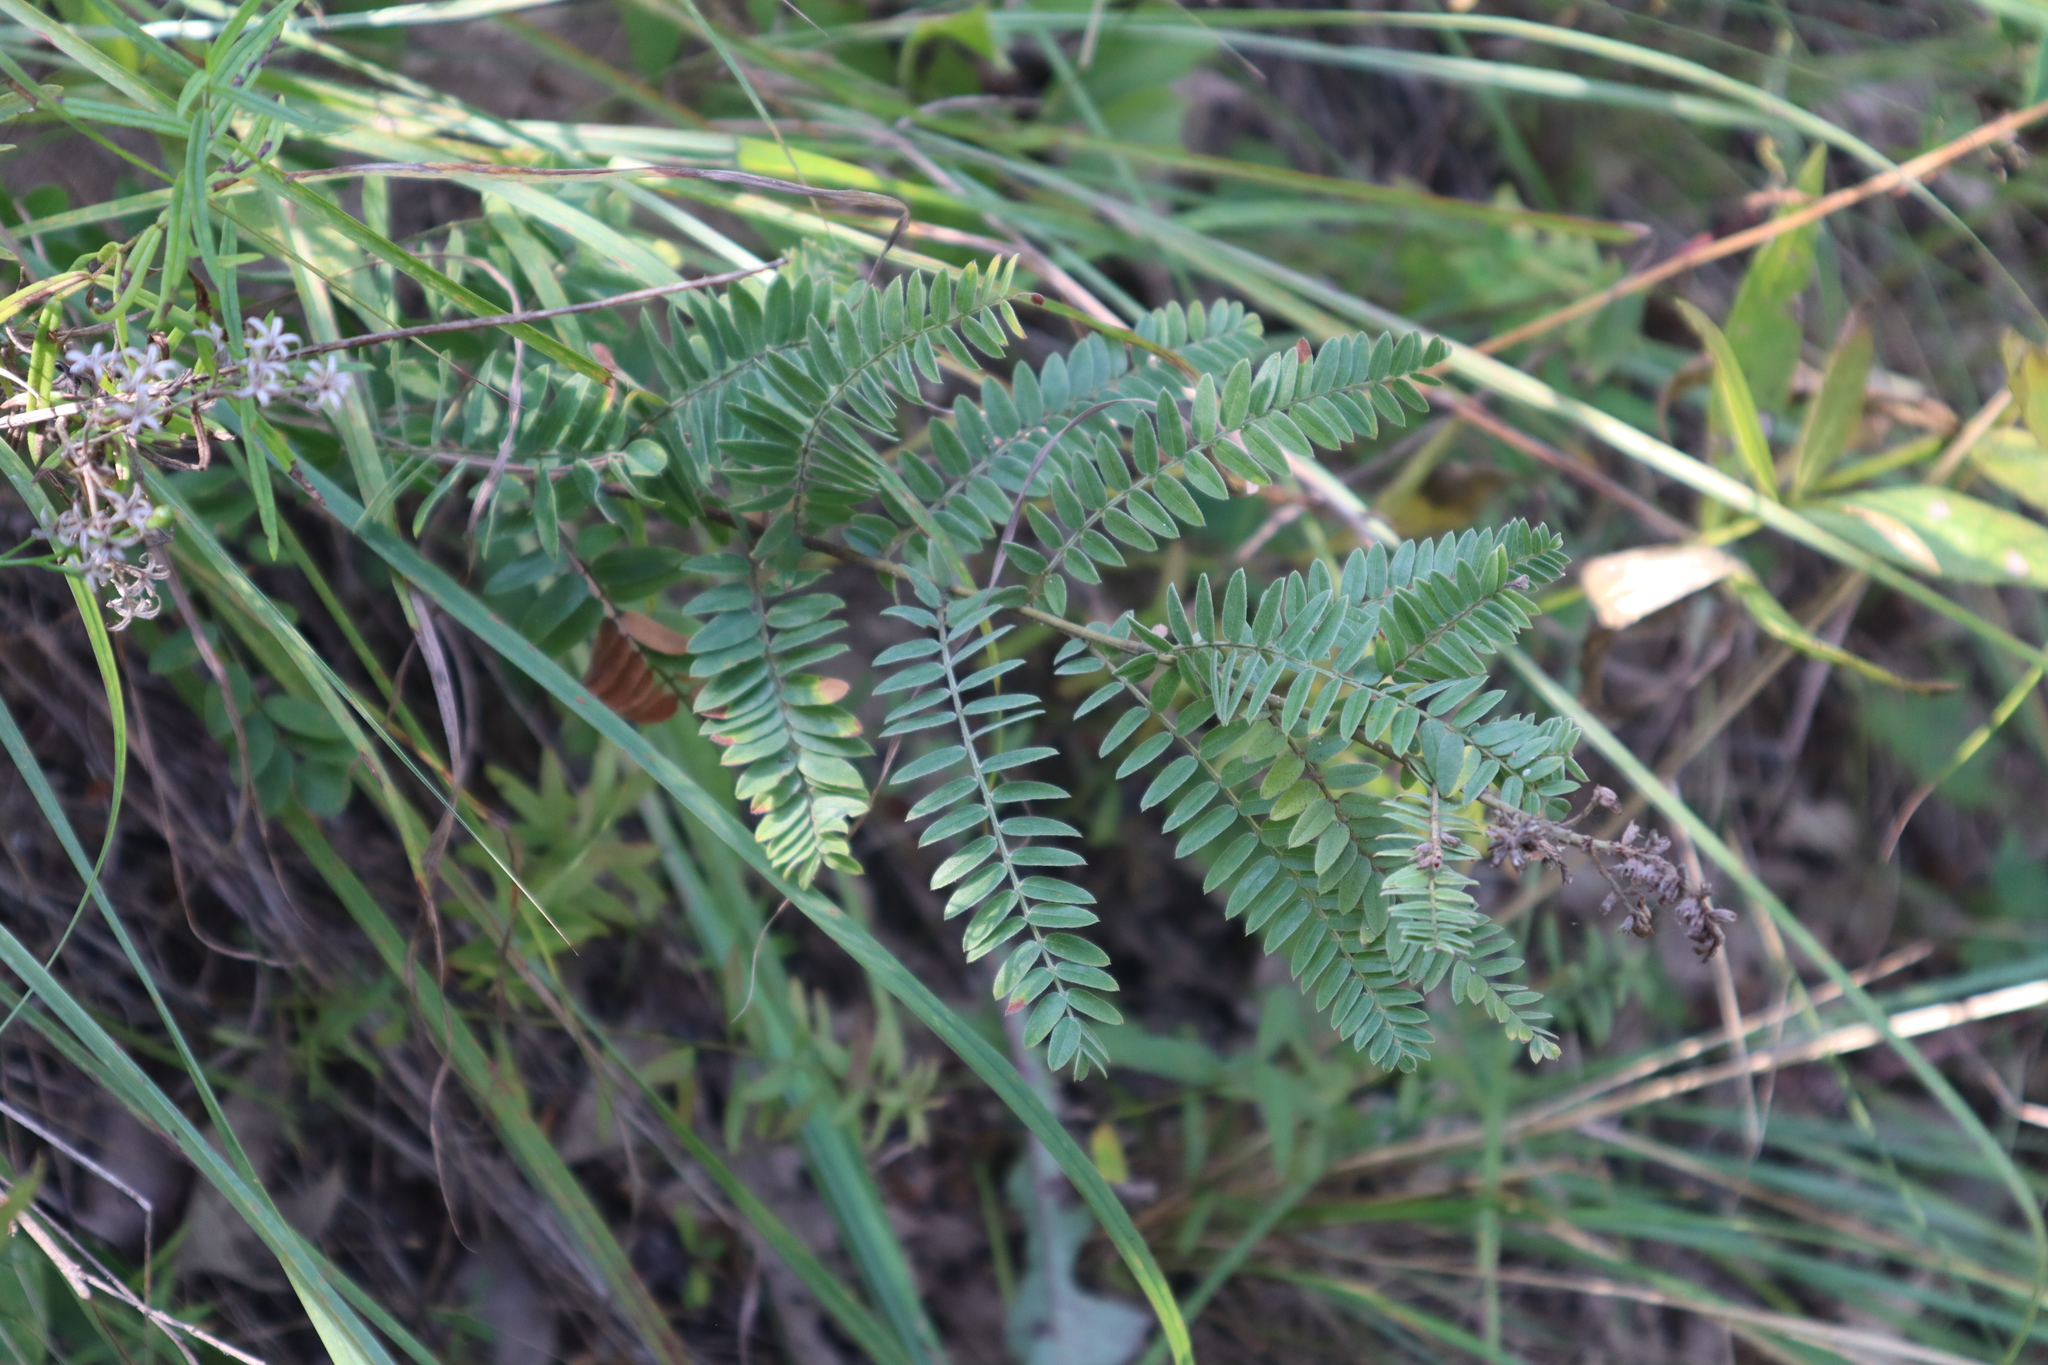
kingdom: Plantae
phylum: Tracheophyta
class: Magnoliopsida
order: Fabales
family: Fabaceae
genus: Amorpha
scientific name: Amorpha canescens
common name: Leadplant
